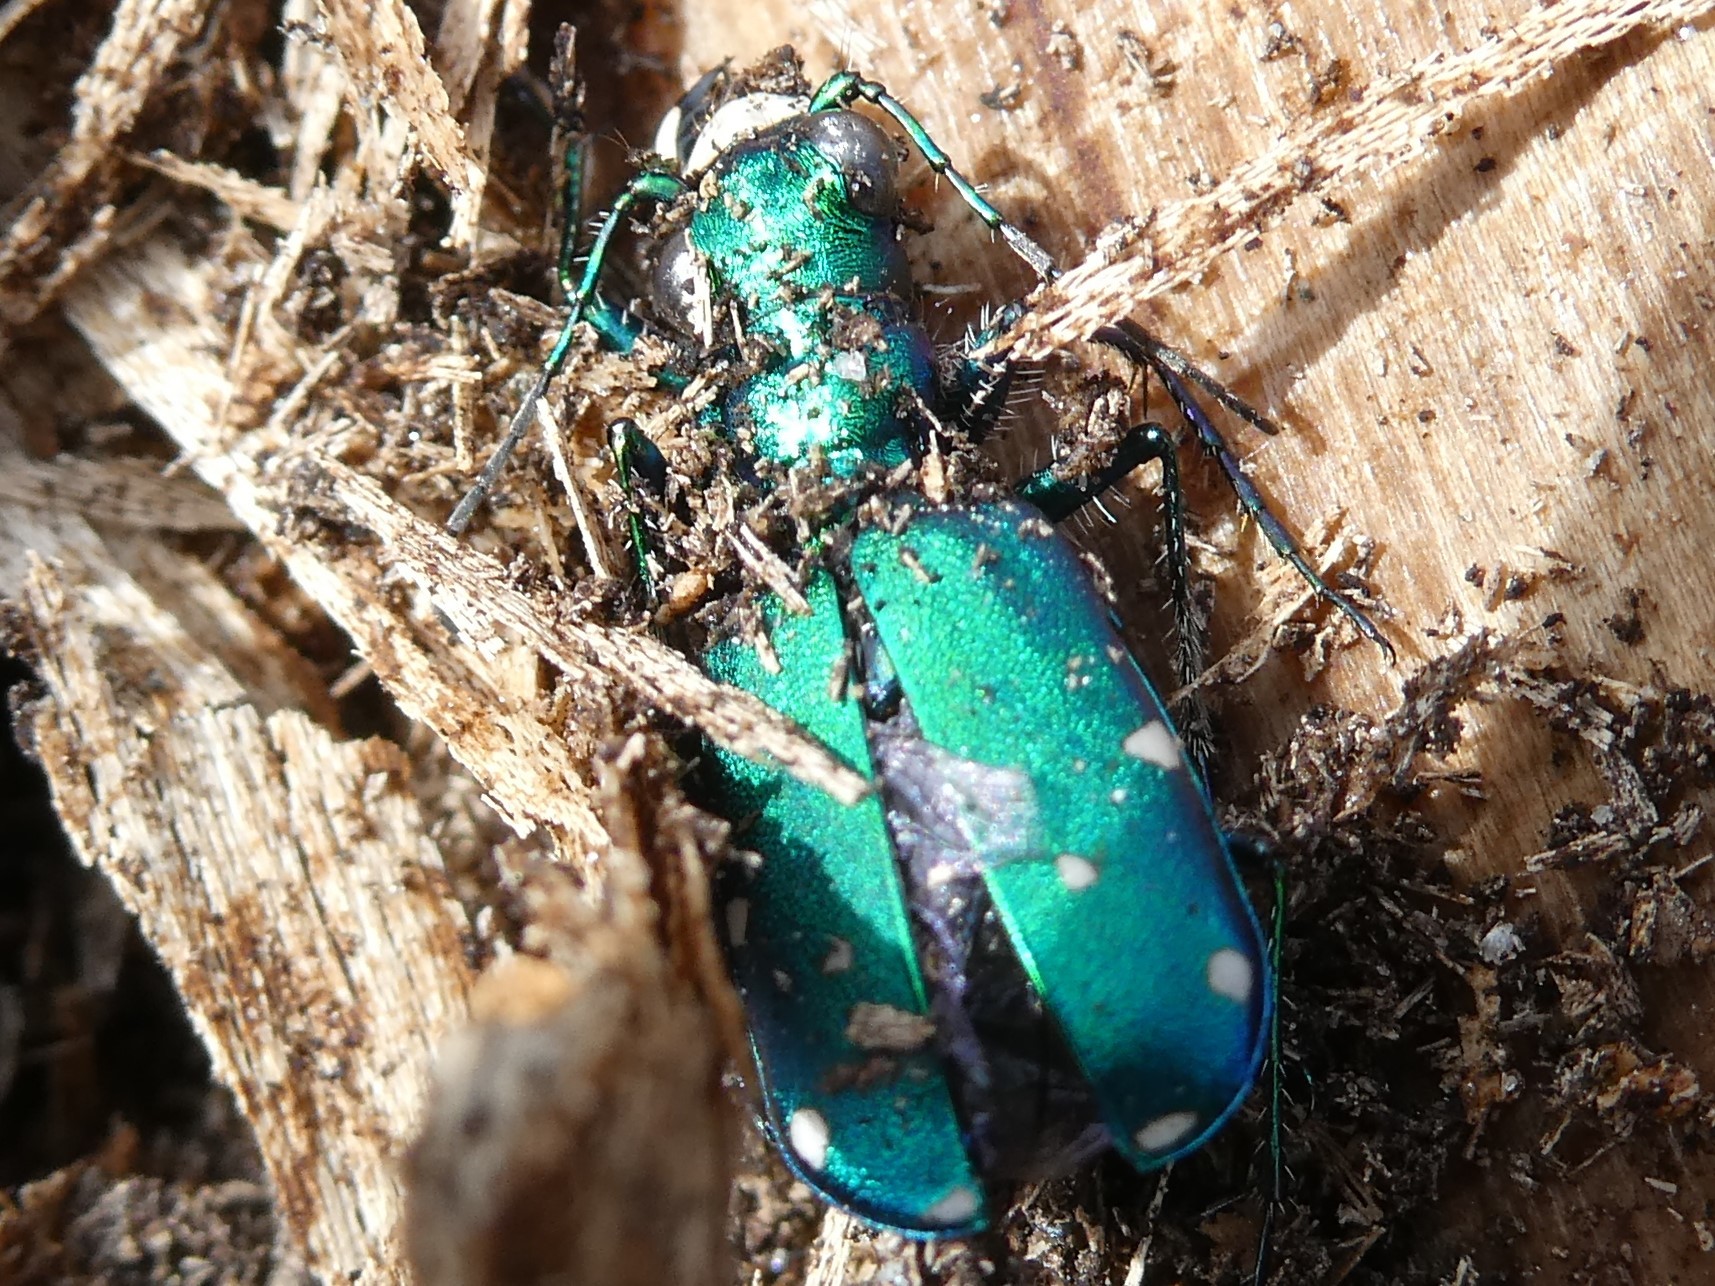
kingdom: Animalia
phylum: Arthropoda
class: Insecta
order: Coleoptera
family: Carabidae
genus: Cicindela
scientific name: Cicindela sexguttata
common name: Six-spotted tiger beetle
